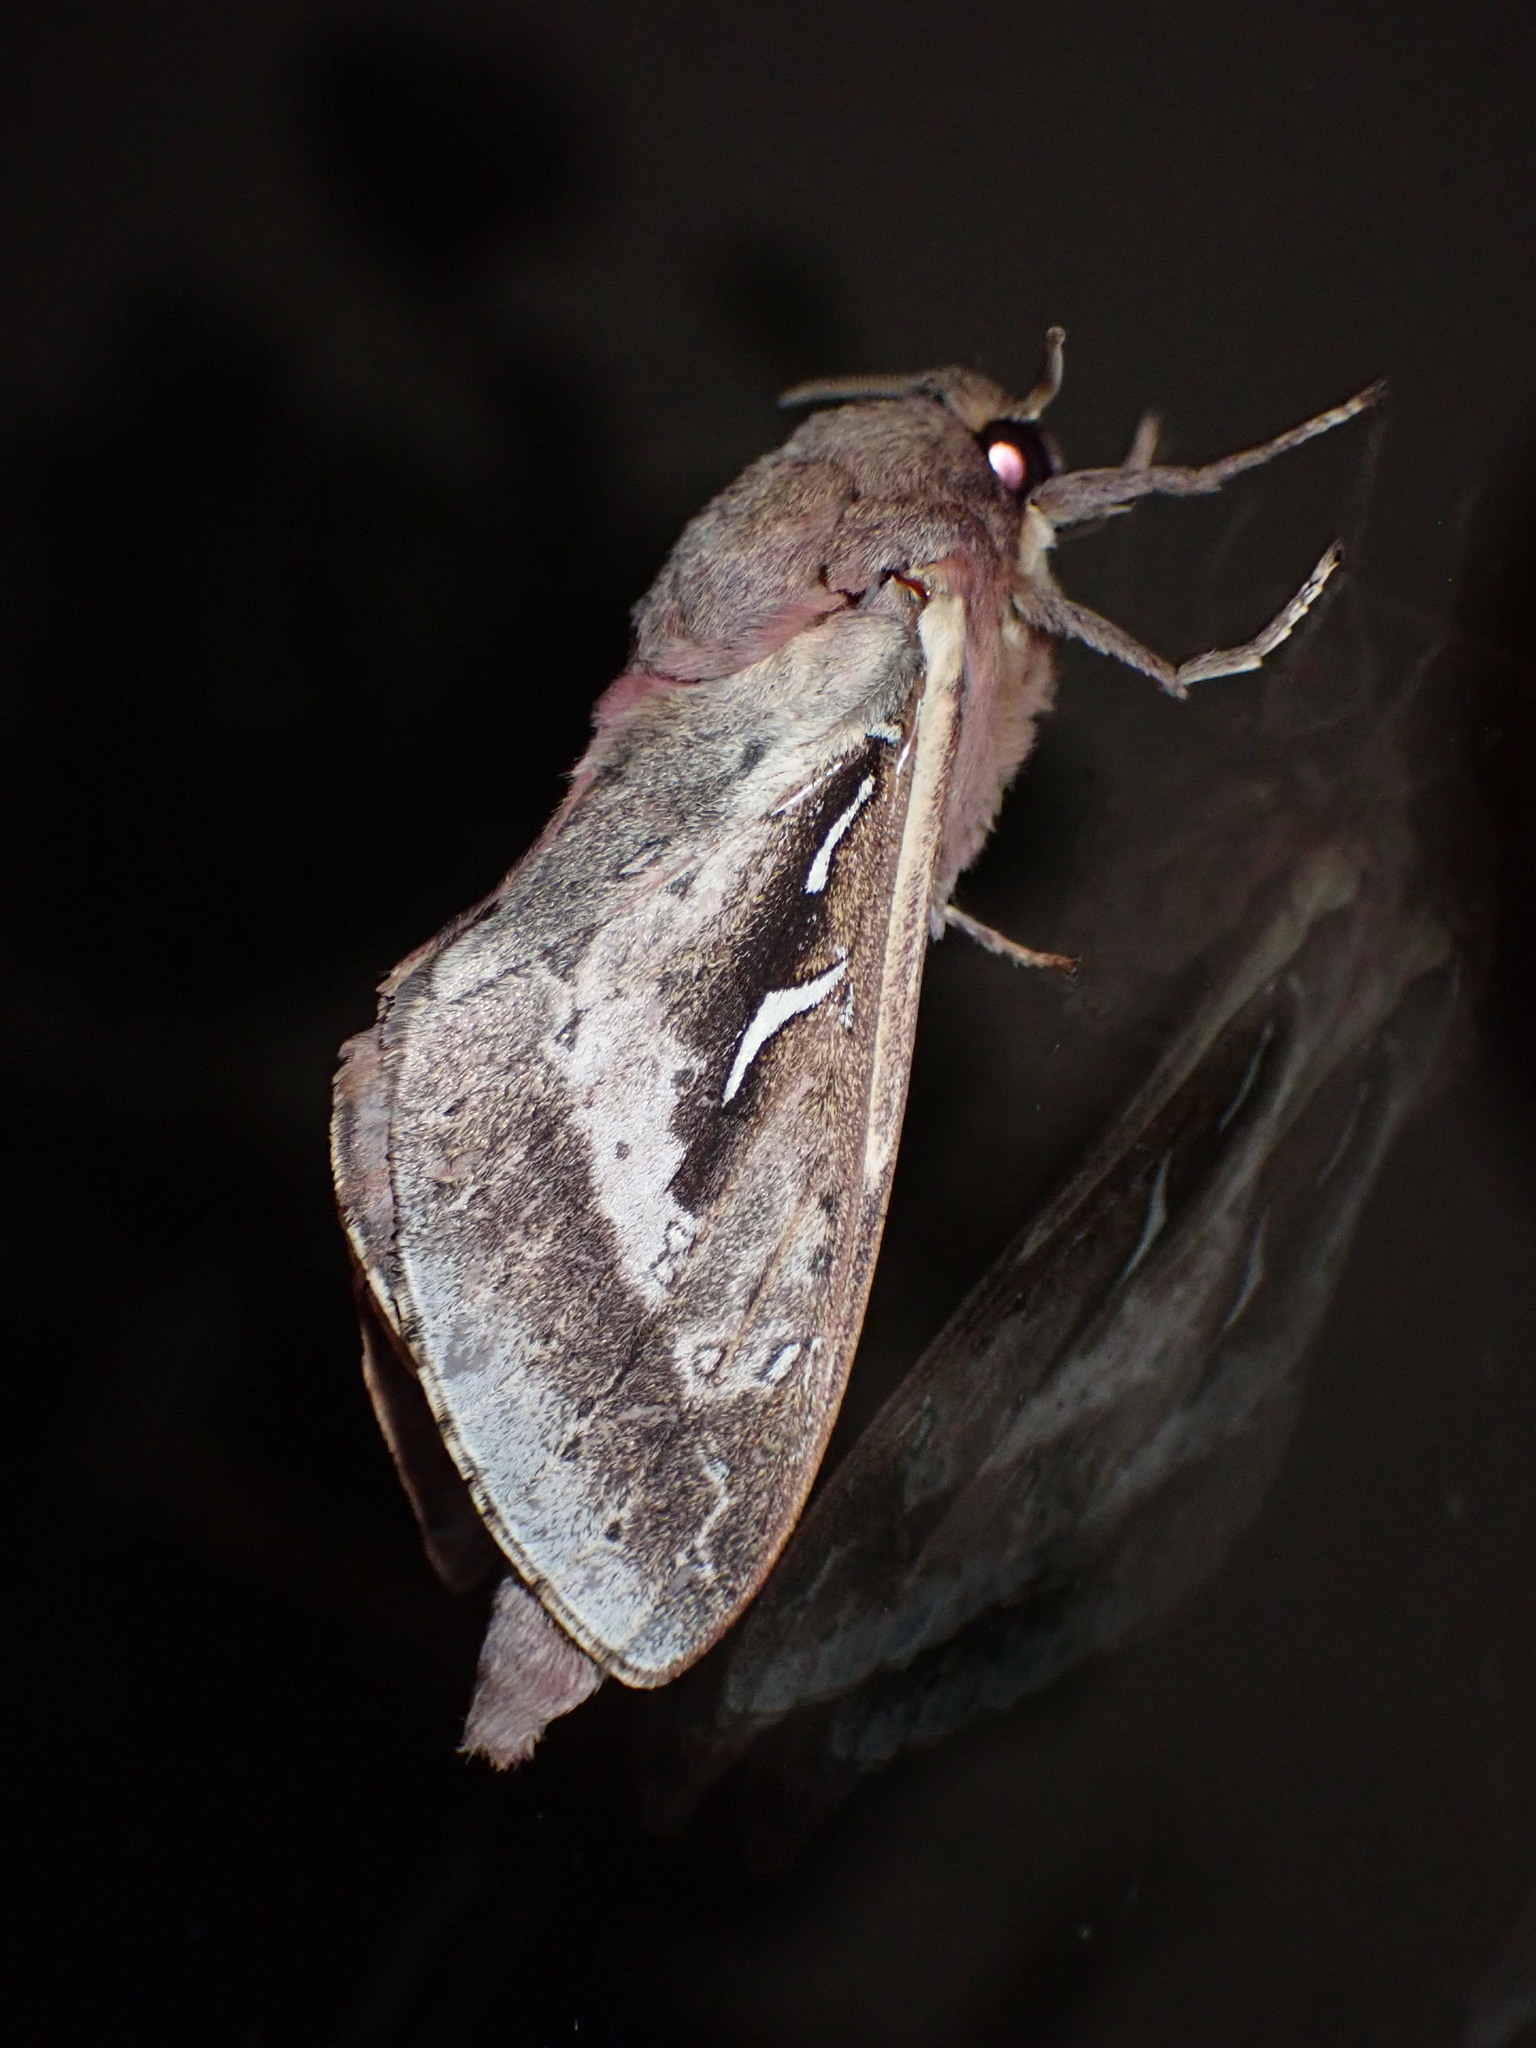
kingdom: Animalia
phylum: Arthropoda
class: Insecta
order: Lepidoptera
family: Hepialidae
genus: Wiseana
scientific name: Wiseana signata
